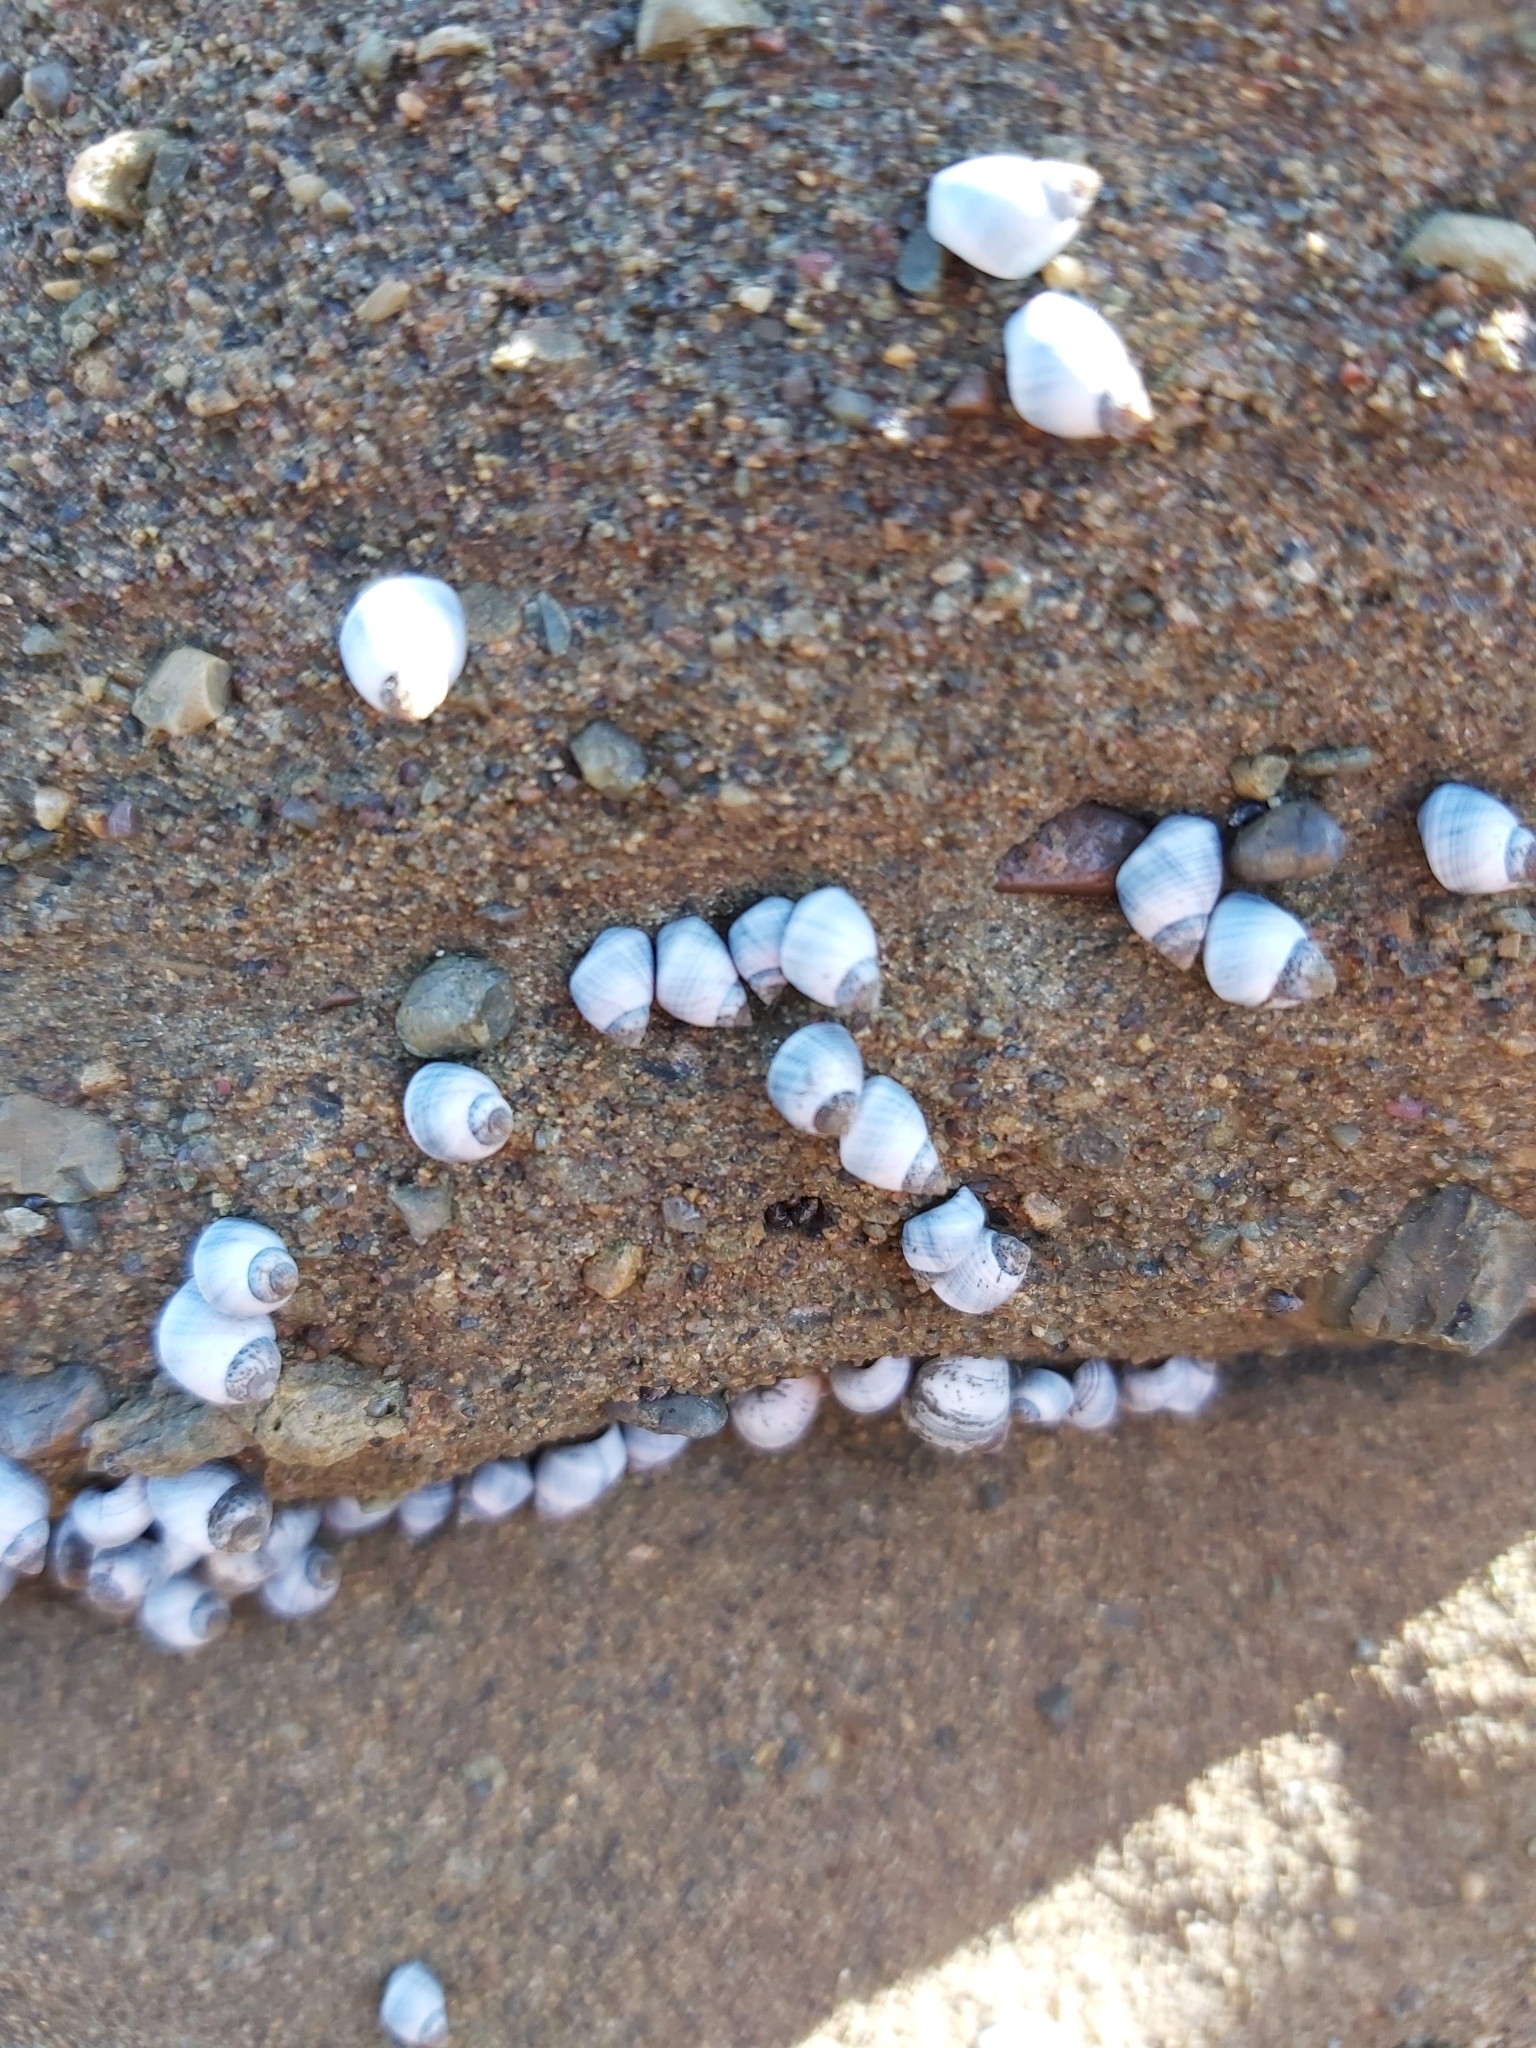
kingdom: Animalia
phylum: Mollusca
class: Gastropoda
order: Littorinimorpha
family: Littorinidae
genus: Austrolittorina
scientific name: Austrolittorina unifasciata
